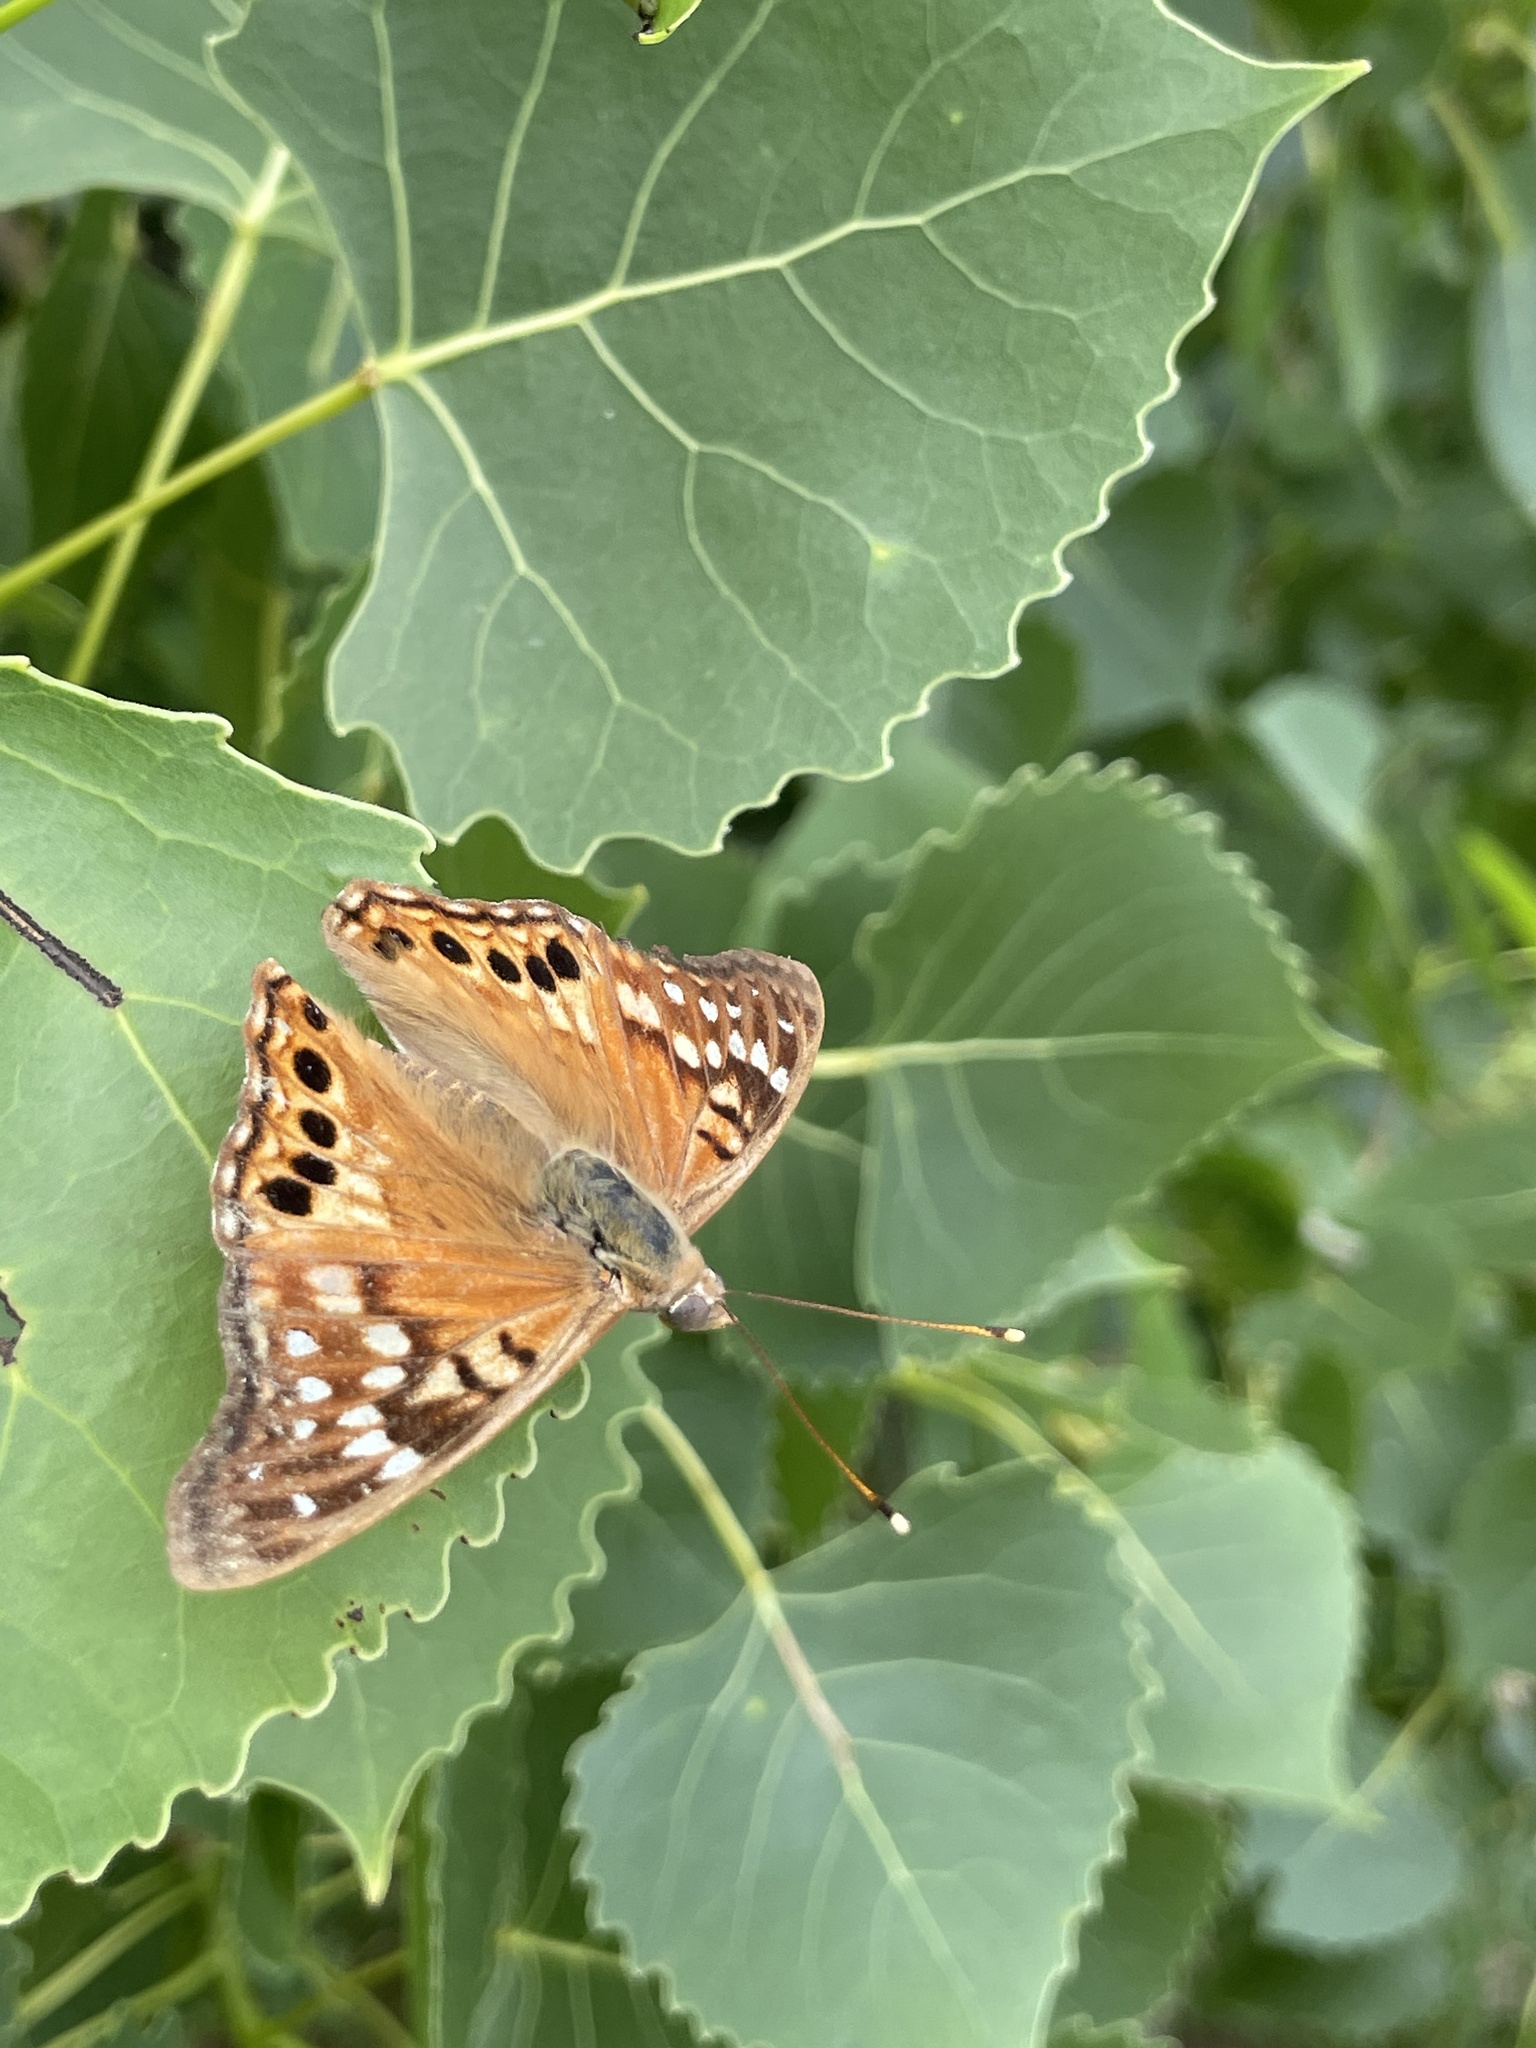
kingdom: Animalia
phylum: Arthropoda
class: Insecta
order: Lepidoptera
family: Nymphalidae
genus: Asterocampa
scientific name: Asterocampa clyton
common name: Tawny emperor
